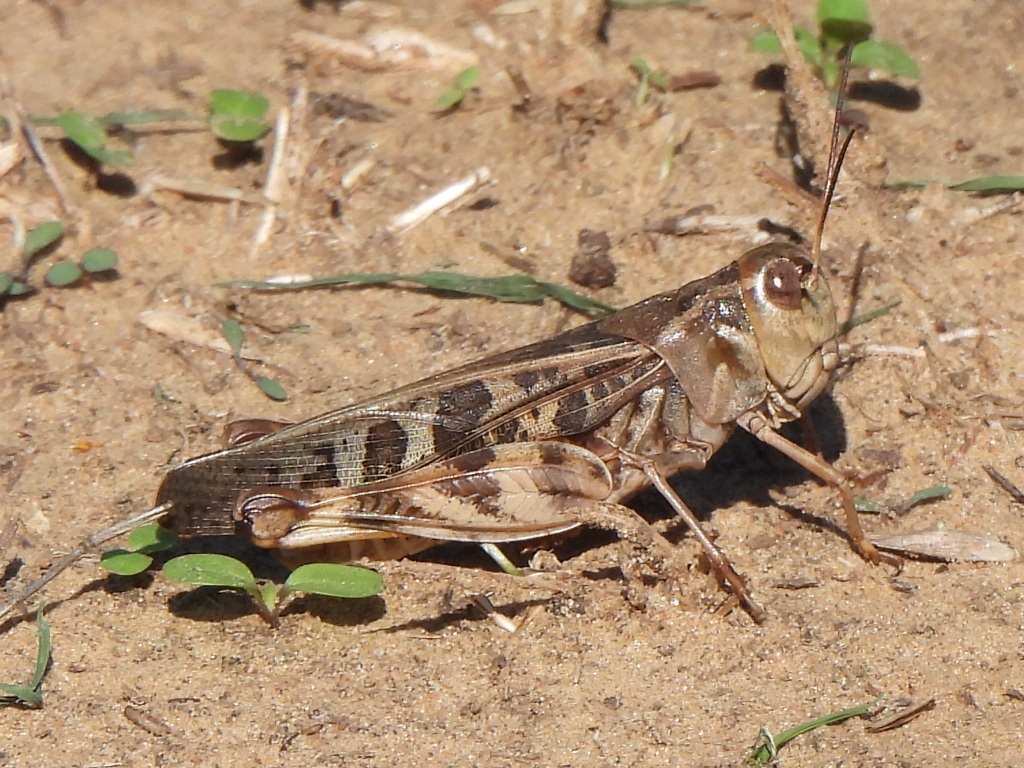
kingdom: Animalia
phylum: Arthropoda
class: Insecta
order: Orthoptera
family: Acrididae
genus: Hippiscus
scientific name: Hippiscus ocelote
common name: Wrinkled grasshopper
